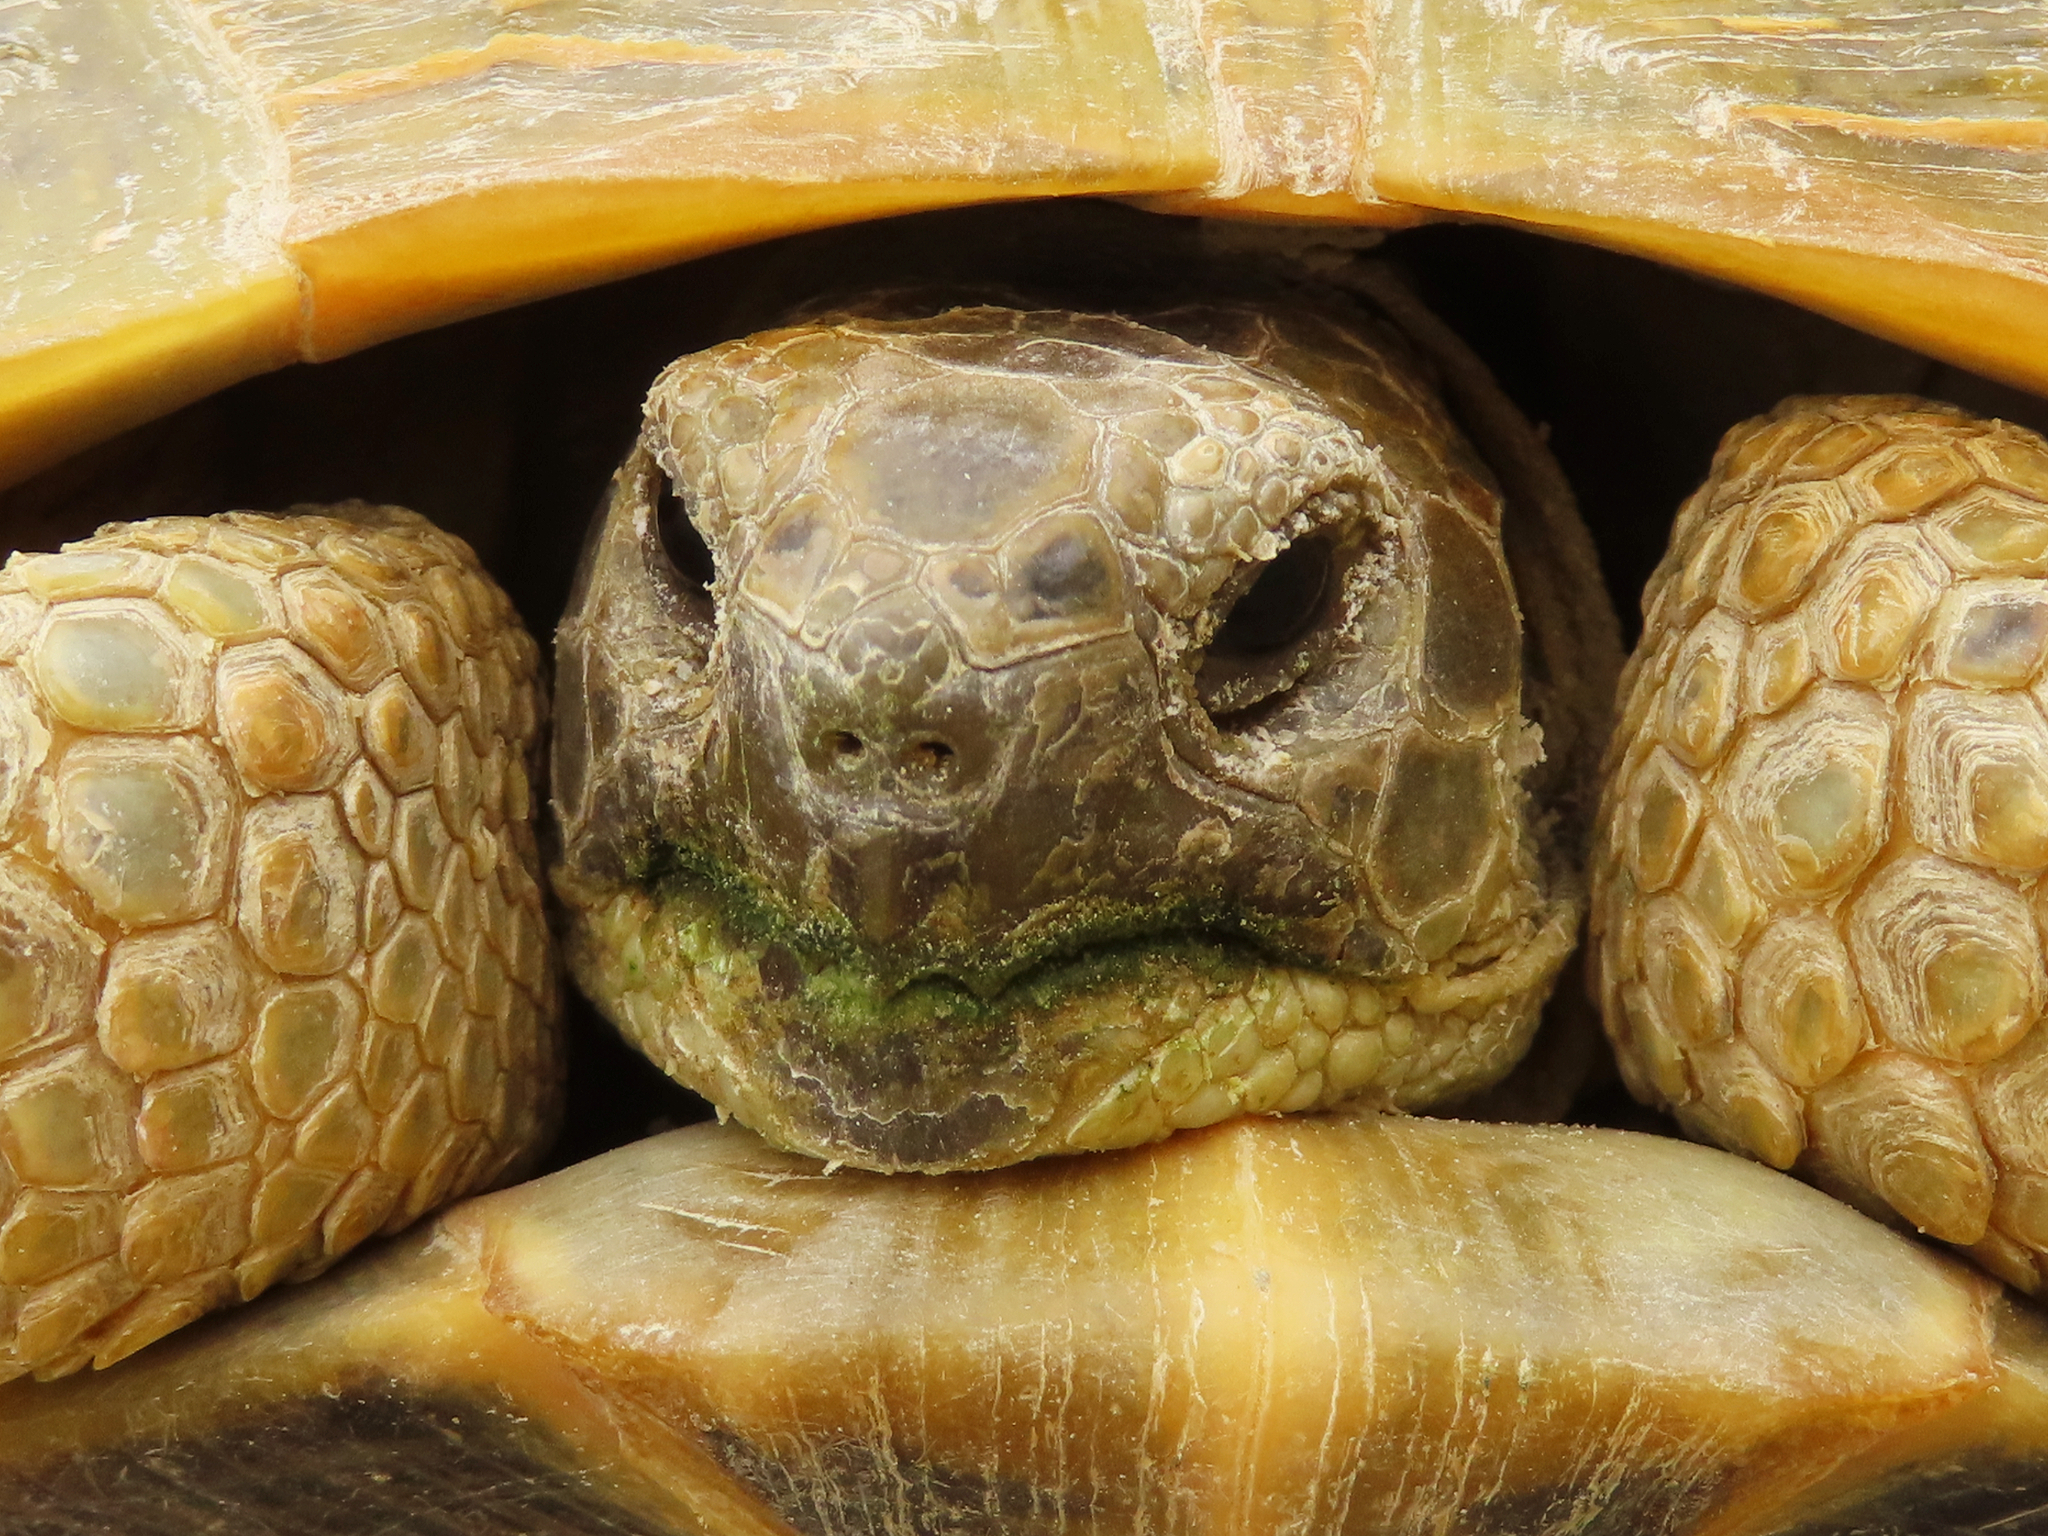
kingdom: Animalia
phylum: Chordata
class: Testudines
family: Testudinidae
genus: Testudo
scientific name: Testudo horsfieldii
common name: Central asia tortoise
